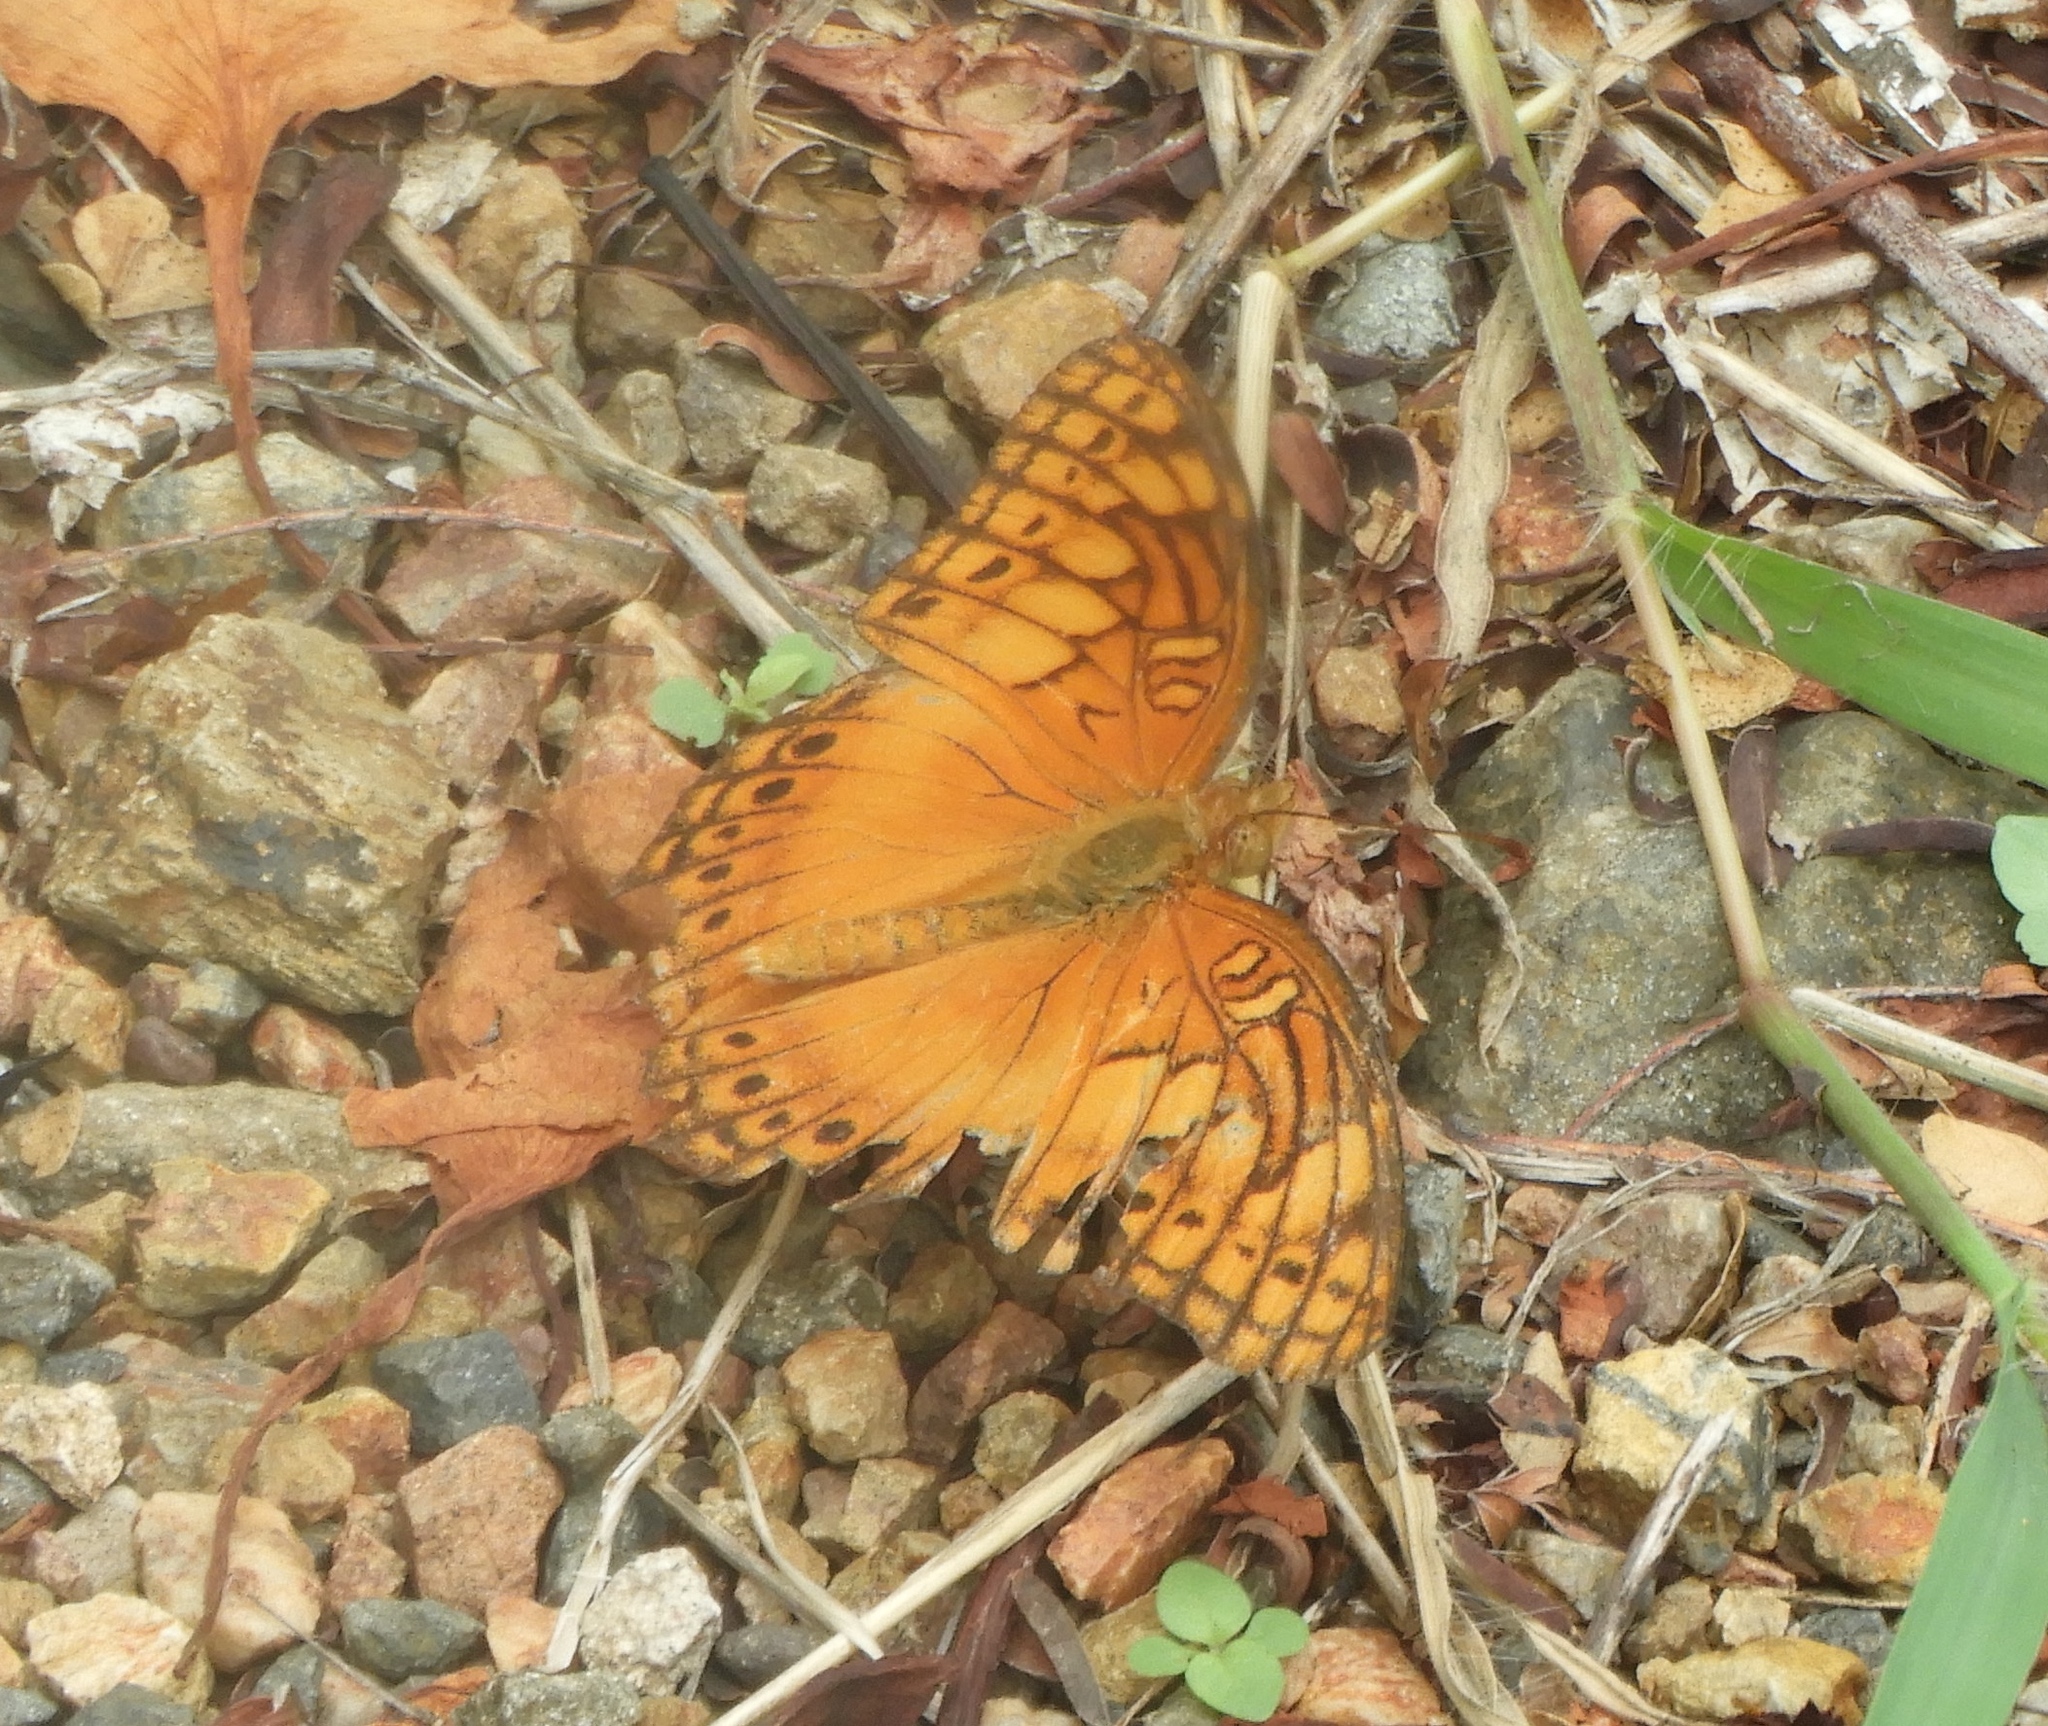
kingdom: Animalia
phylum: Arthropoda
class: Insecta
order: Lepidoptera
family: Nymphalidae
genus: Euptoieta
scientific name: Euptoieta hegesia
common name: Mexican fritillary
